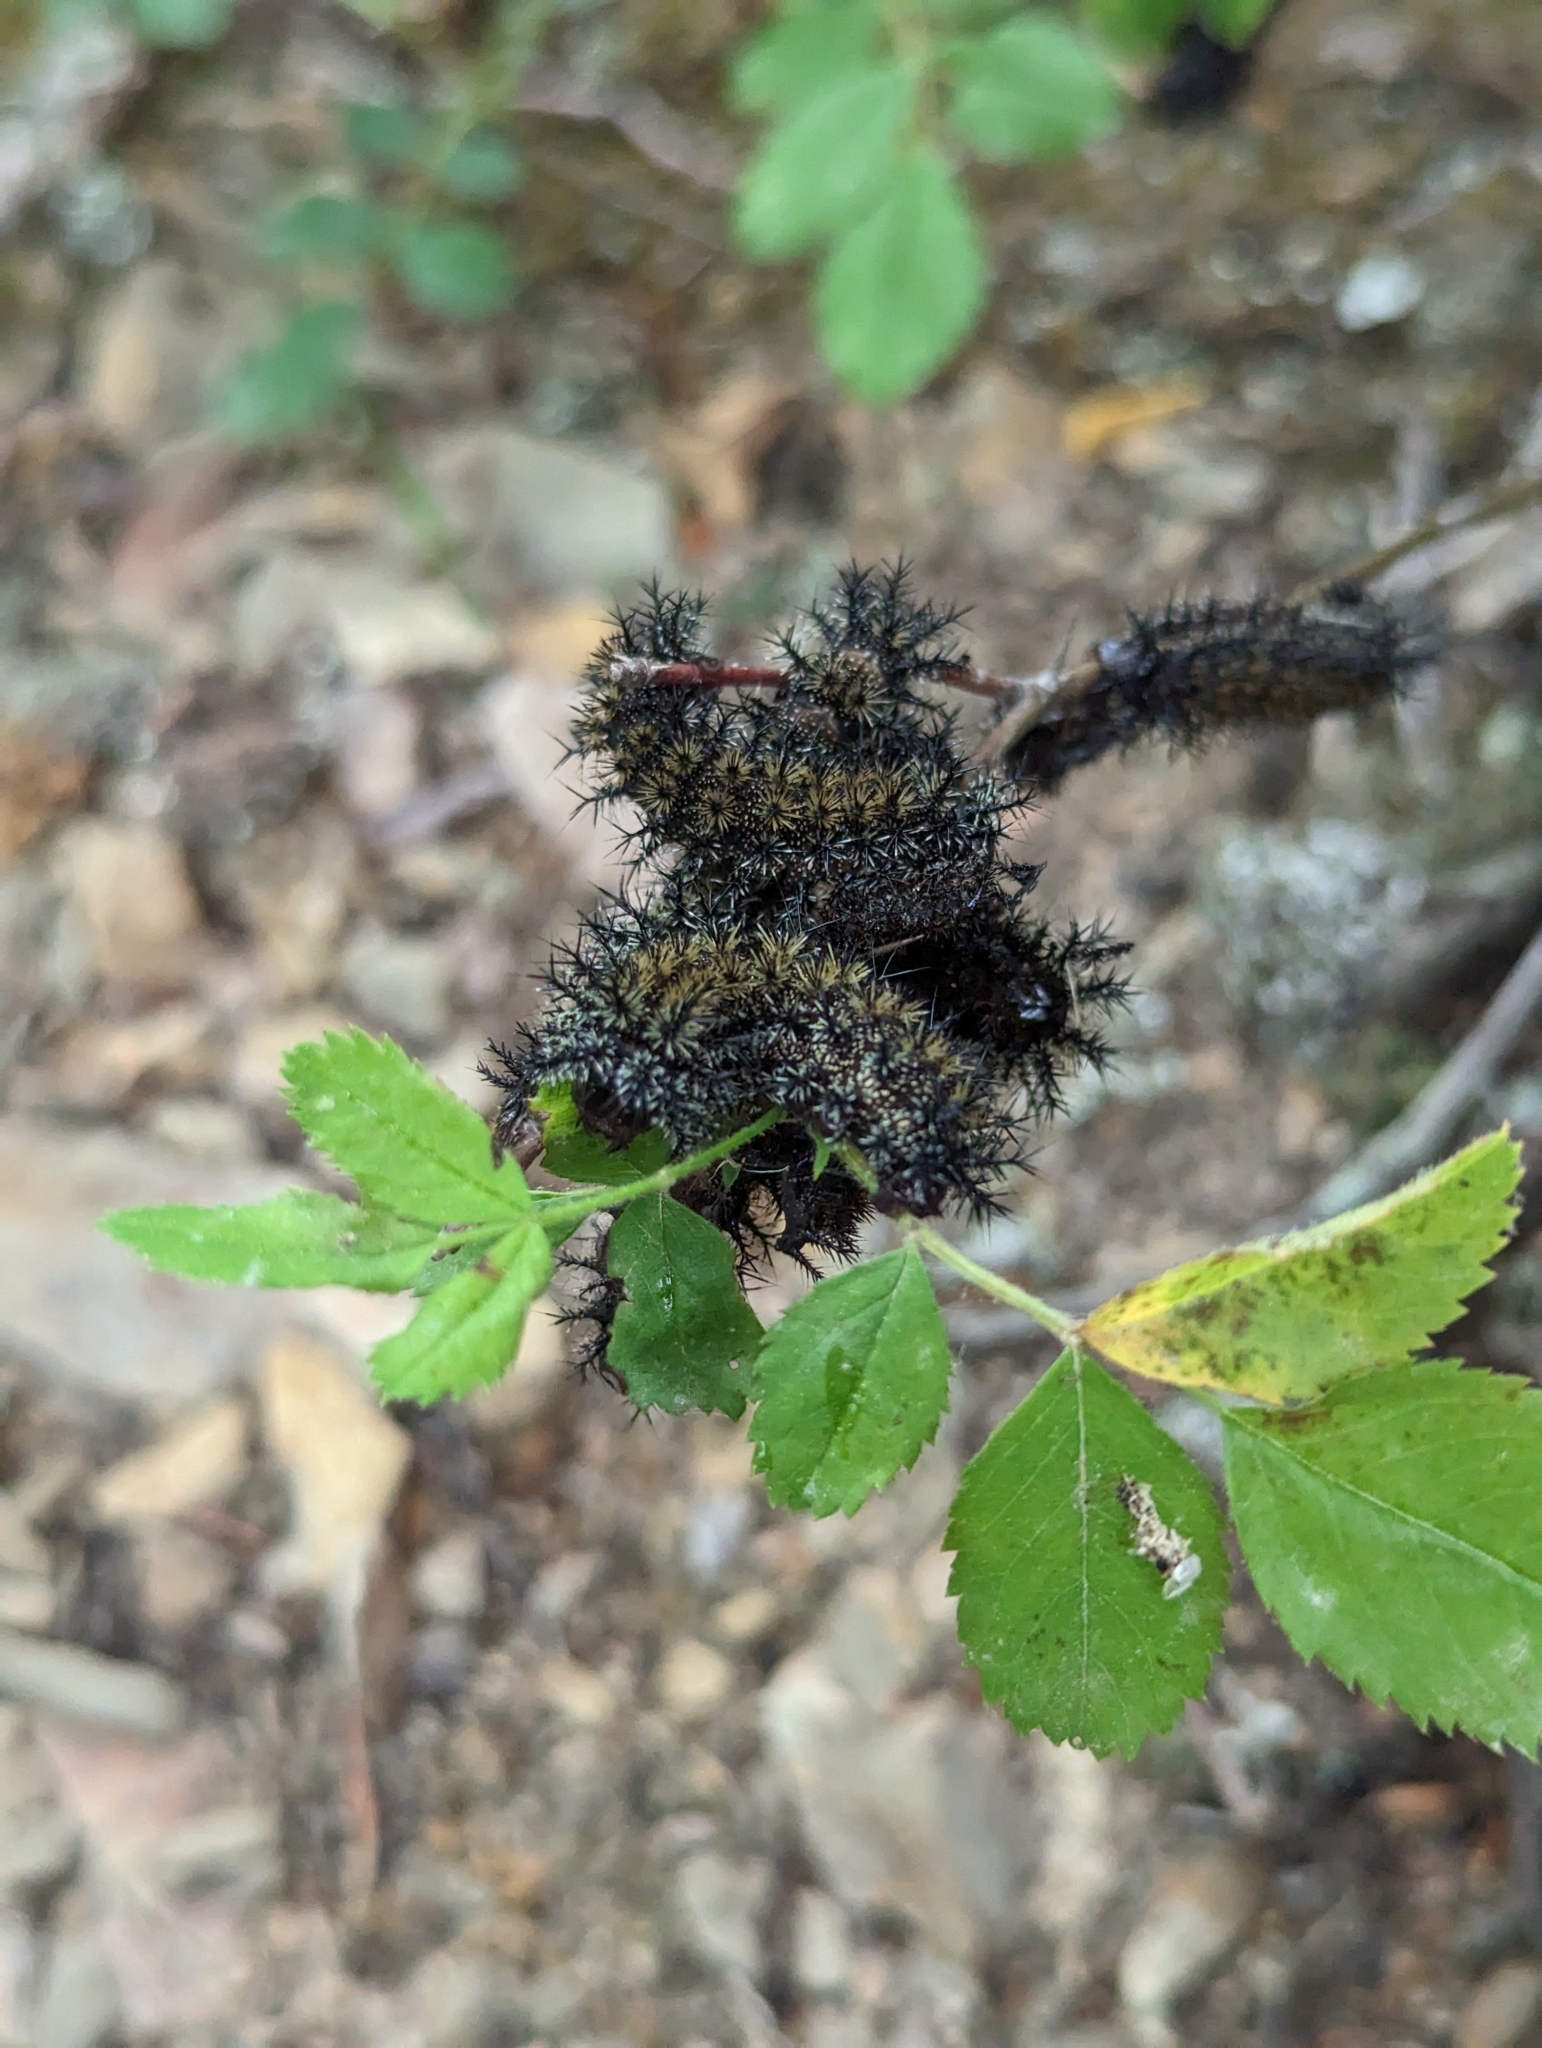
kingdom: Animalia
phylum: Arthropoda
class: Insecta
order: Lepidoptera
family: Saturniidae
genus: Hemileuca
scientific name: Hemileuca maia
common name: Eastern buckmoth
